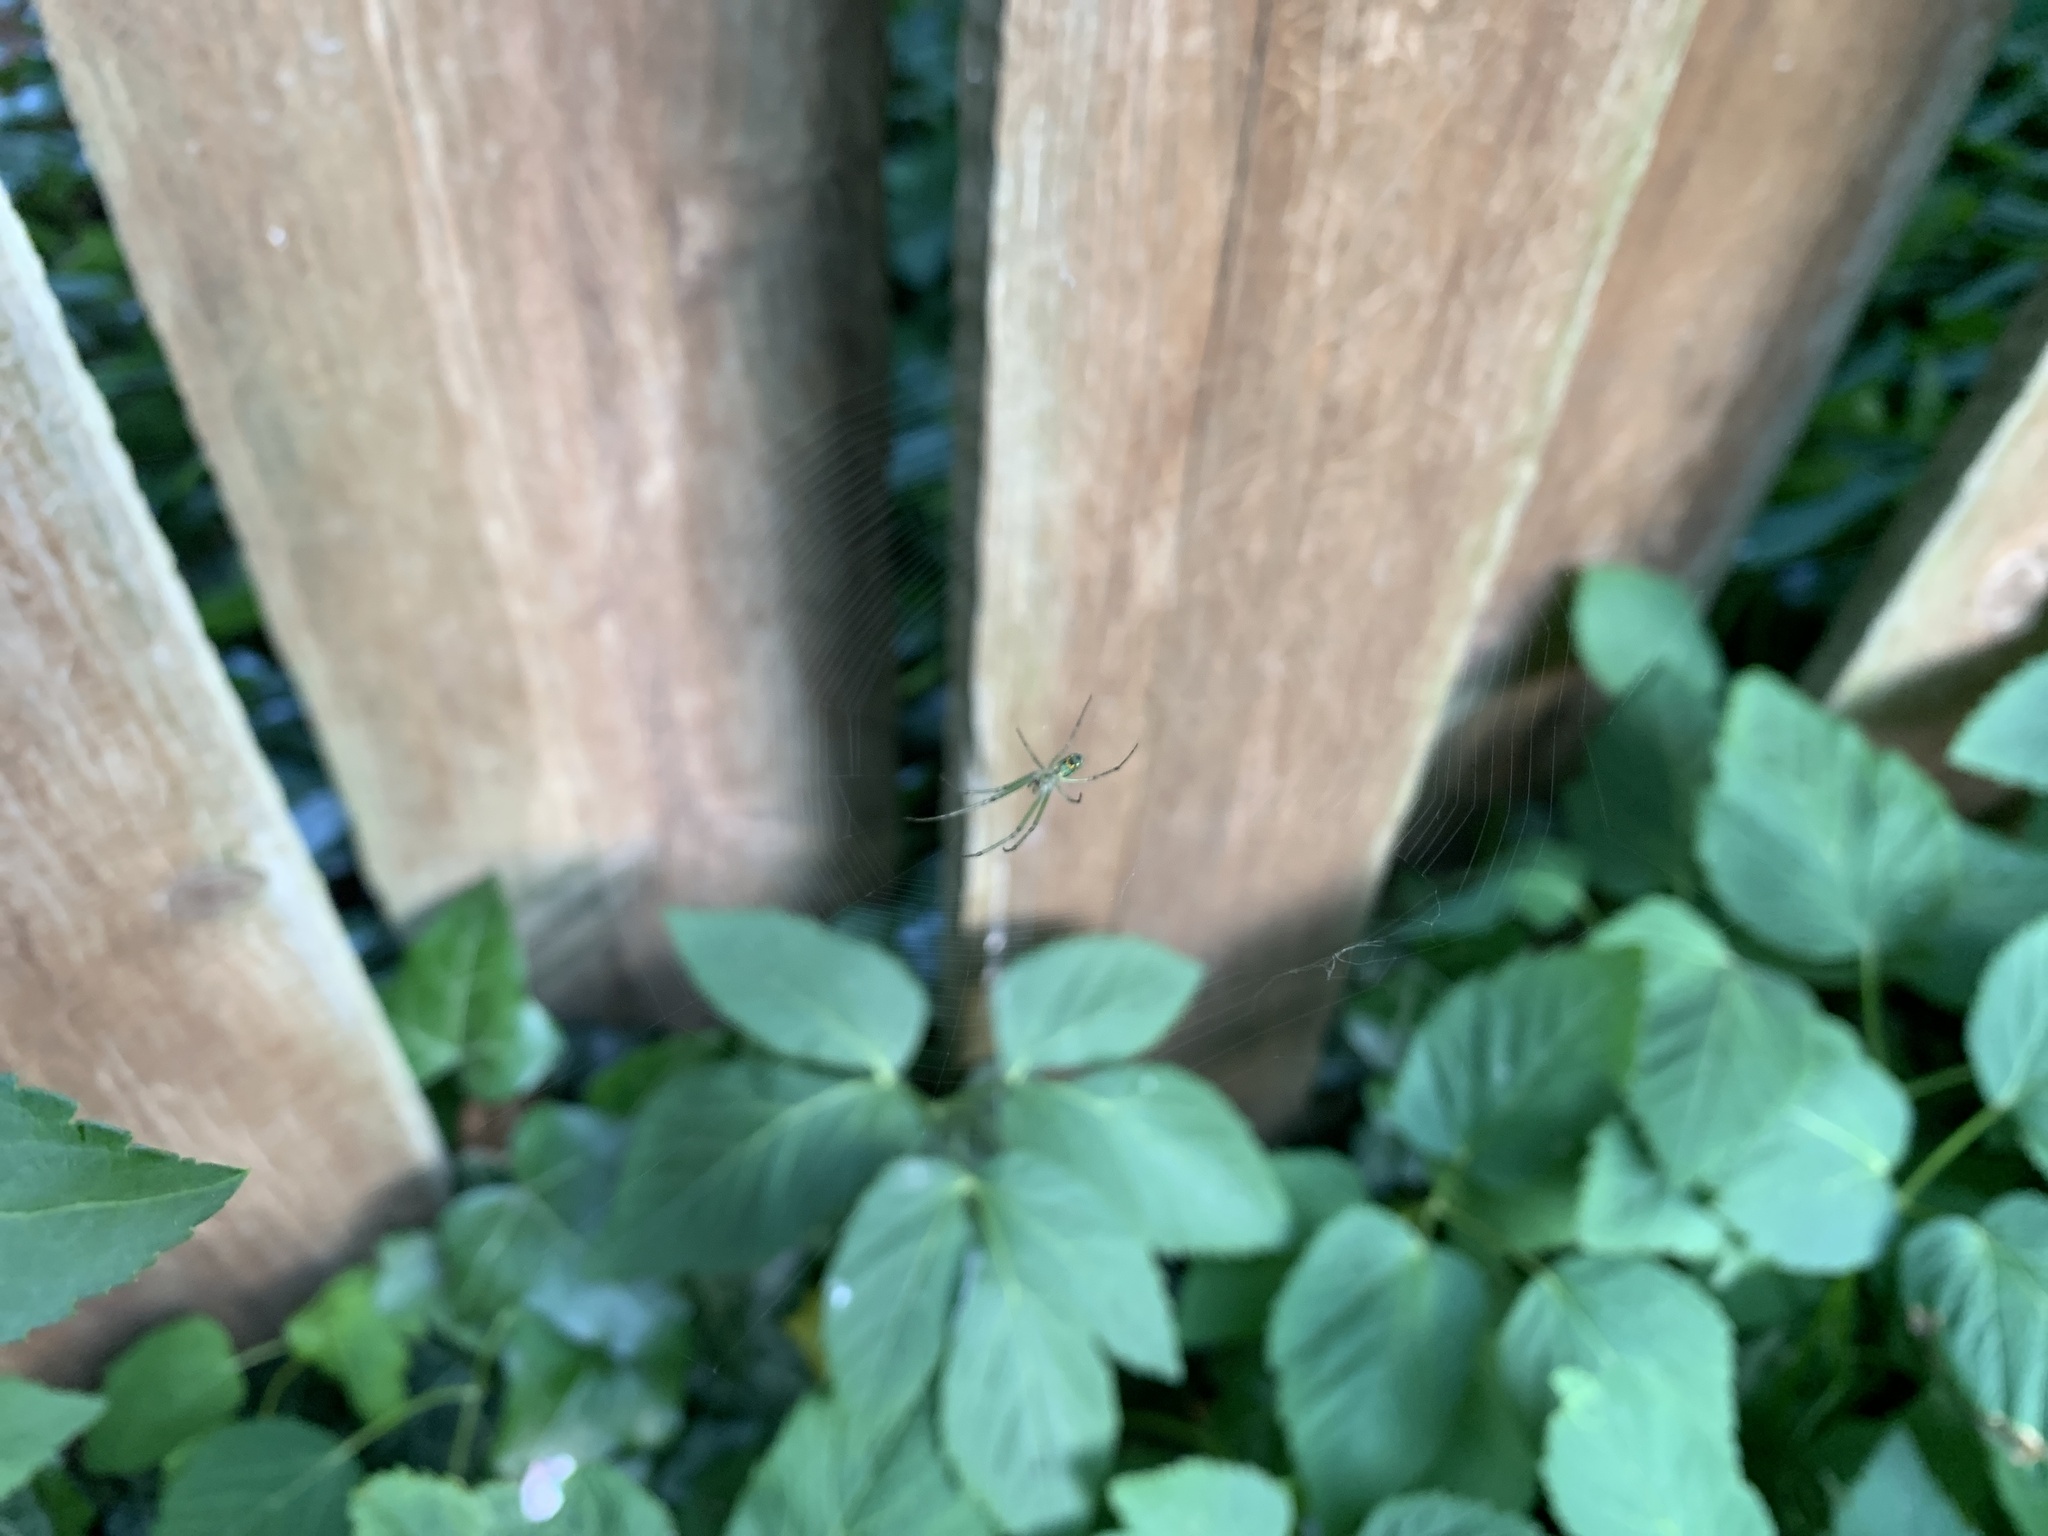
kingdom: Animalia
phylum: Arthropoda
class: Arachnida
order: Araneae
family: Tetragnathidae
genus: Leucauge
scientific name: Leucauge venusta
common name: Longjawed orb weavers
